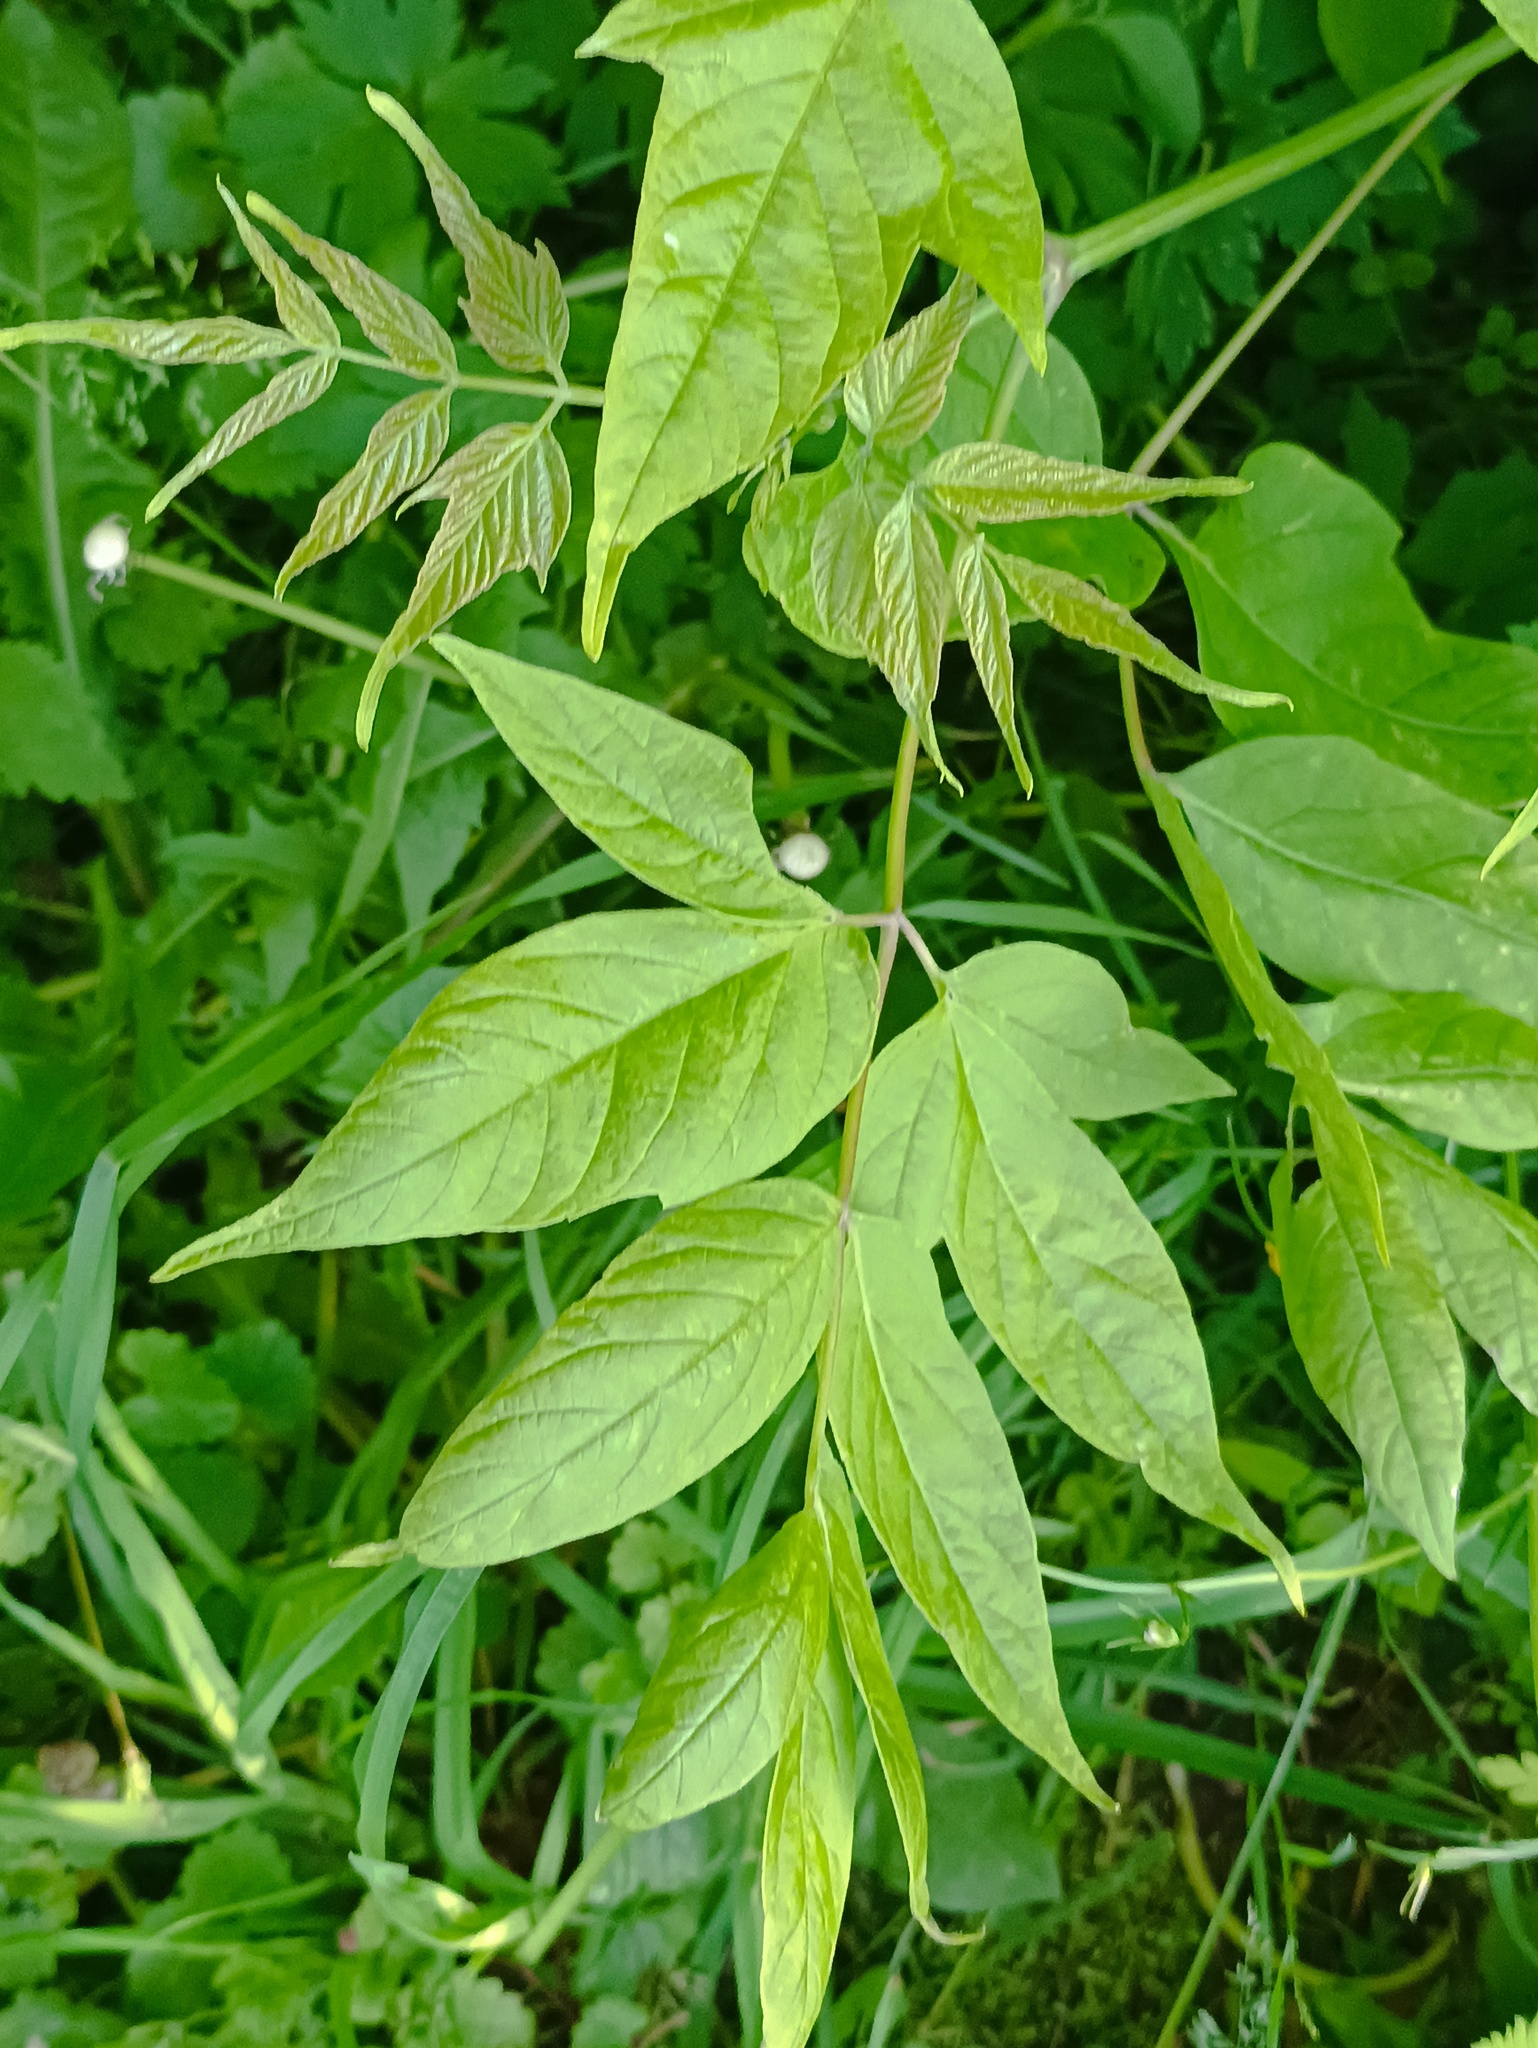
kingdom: Plantae
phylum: Tracheophyta
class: Magnoliopsida
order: Sapindales
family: Sapindaceae
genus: Acer
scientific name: Acer negundo
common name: Ashleaf maple
